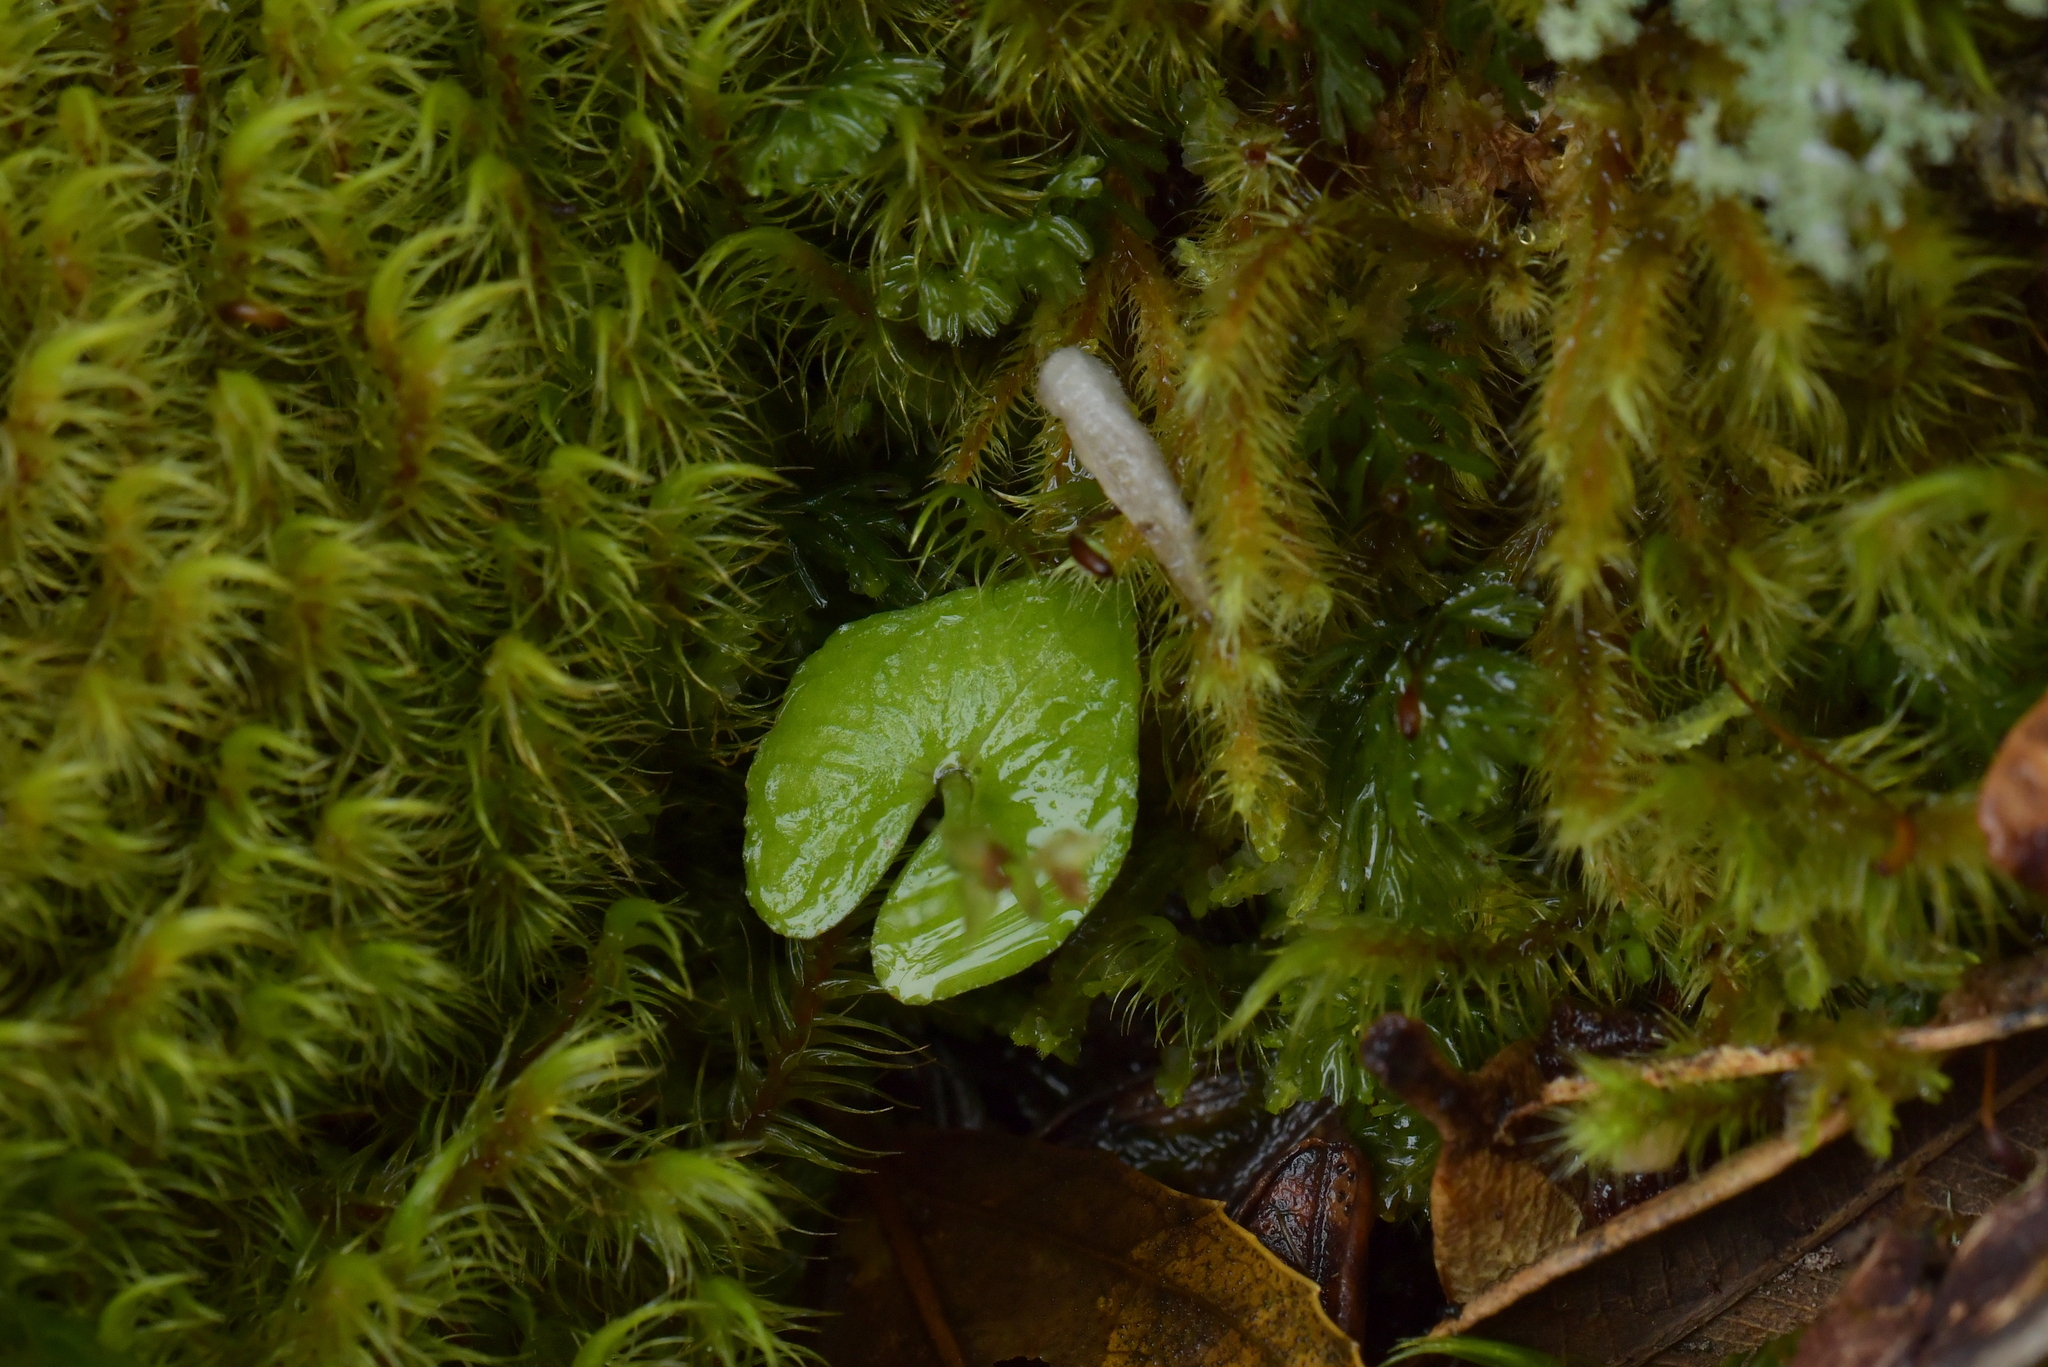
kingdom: Plantae
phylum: Tracheophyta
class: Liliopsida
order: Asparagales
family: Orchidaceae
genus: Acianthus
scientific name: Acianthus sinclairii
